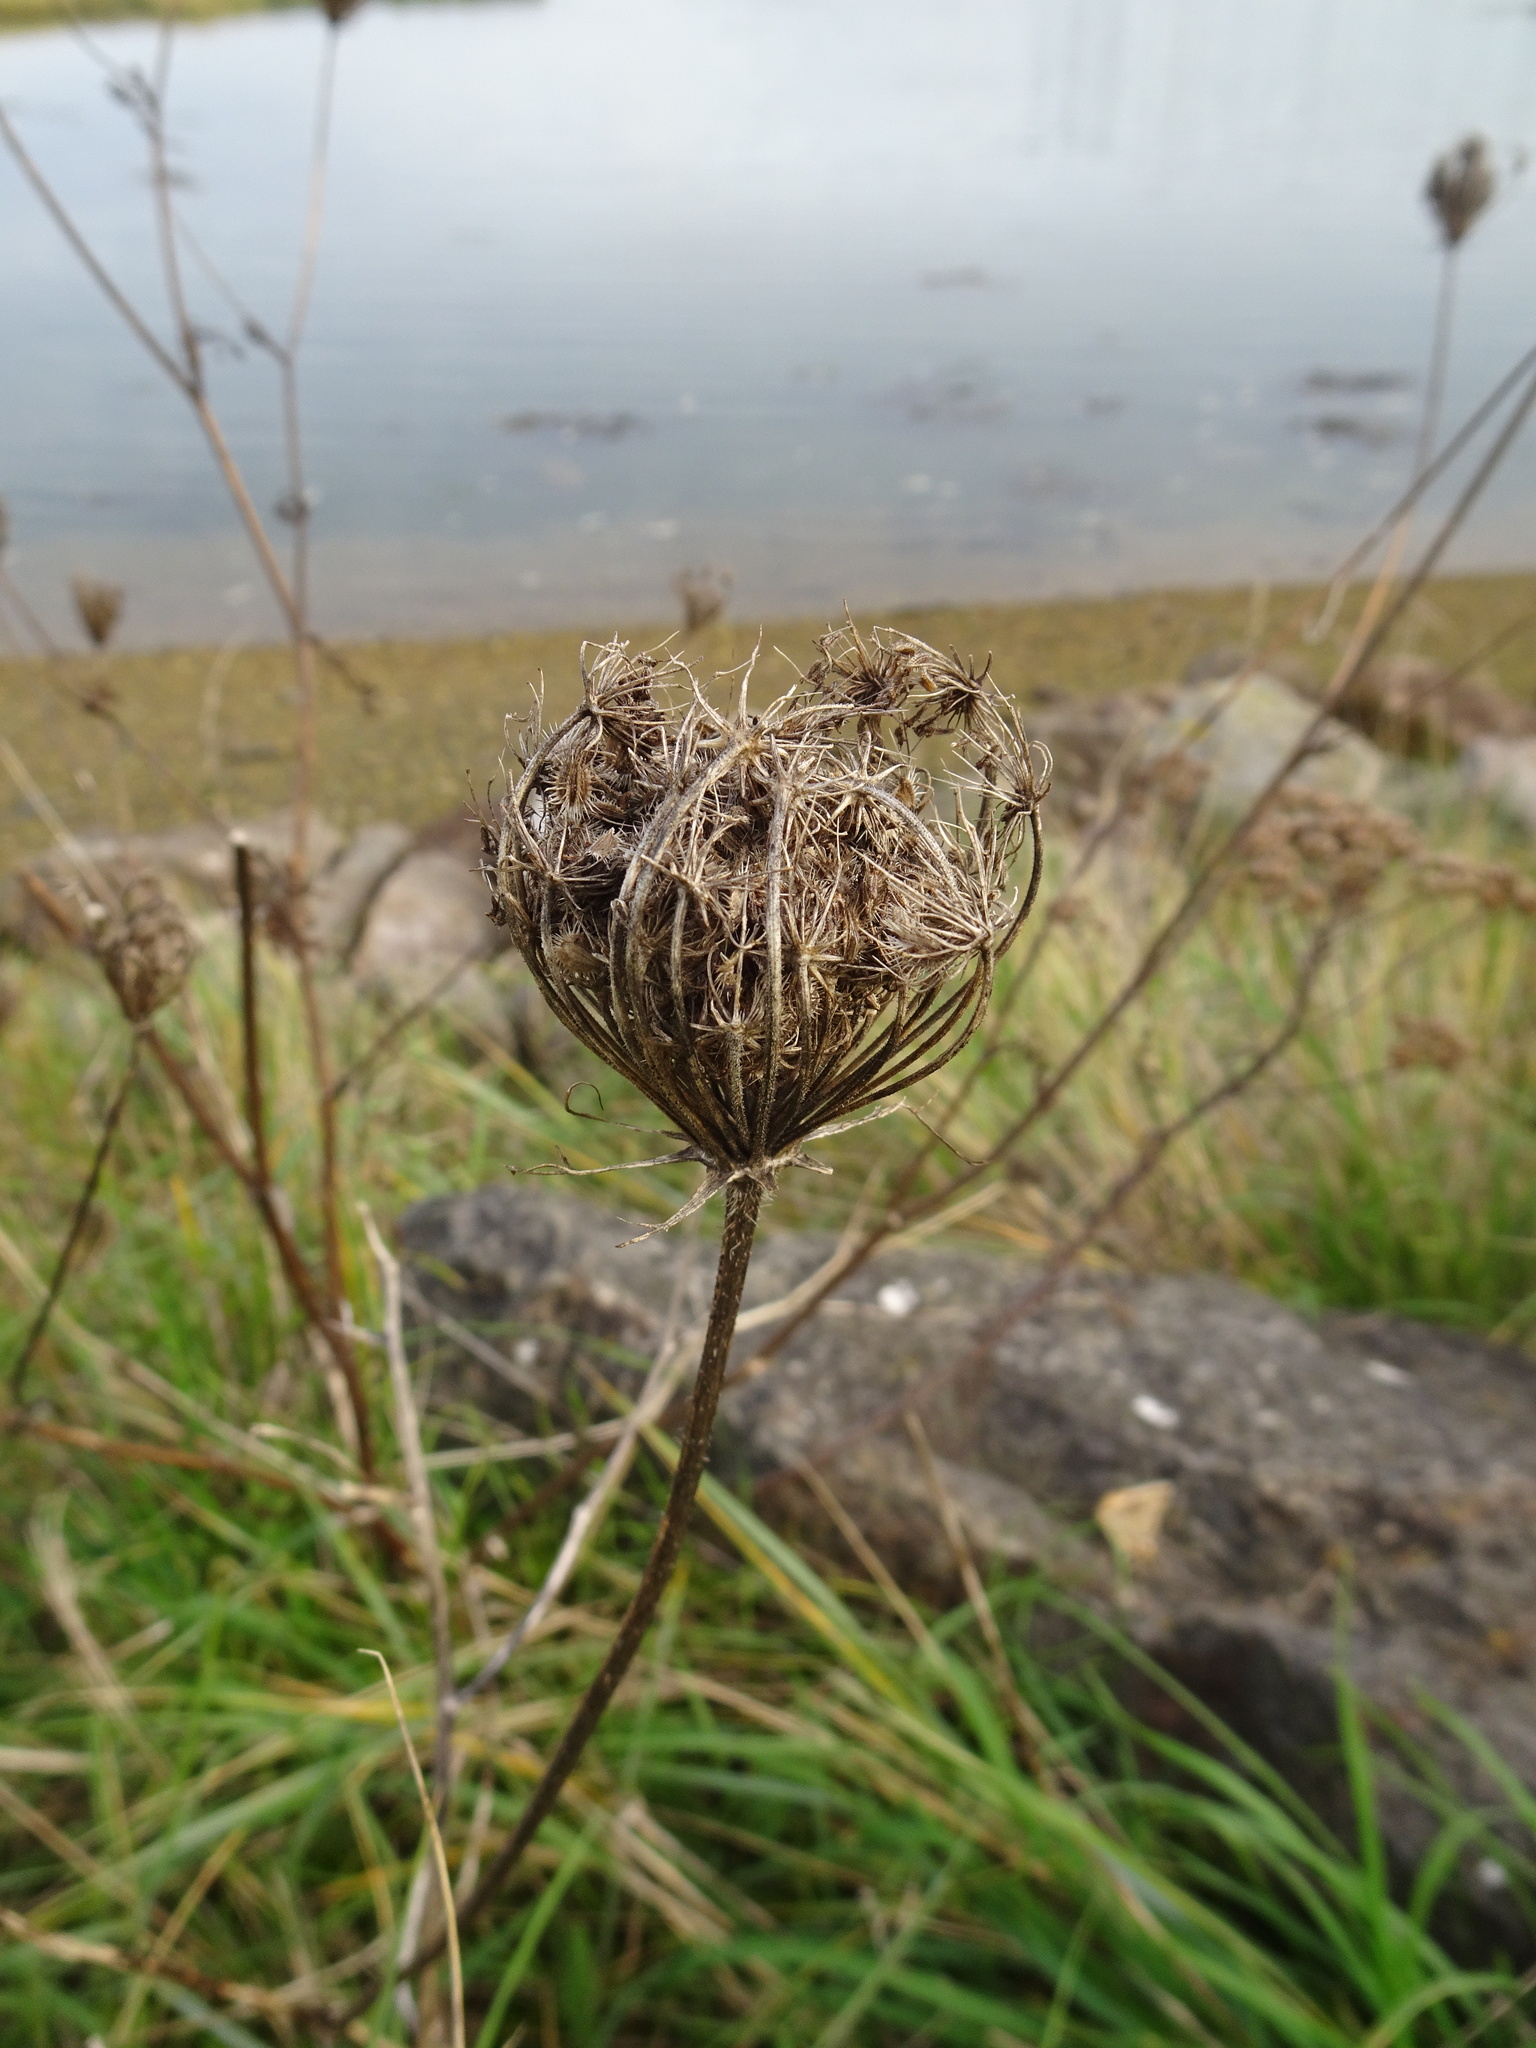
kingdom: Plantae
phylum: Tracheophyta
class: Magnoliopsida
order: Apiales
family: Apiaceae
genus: Daucus
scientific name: Daucus carota
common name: Wild carrot
